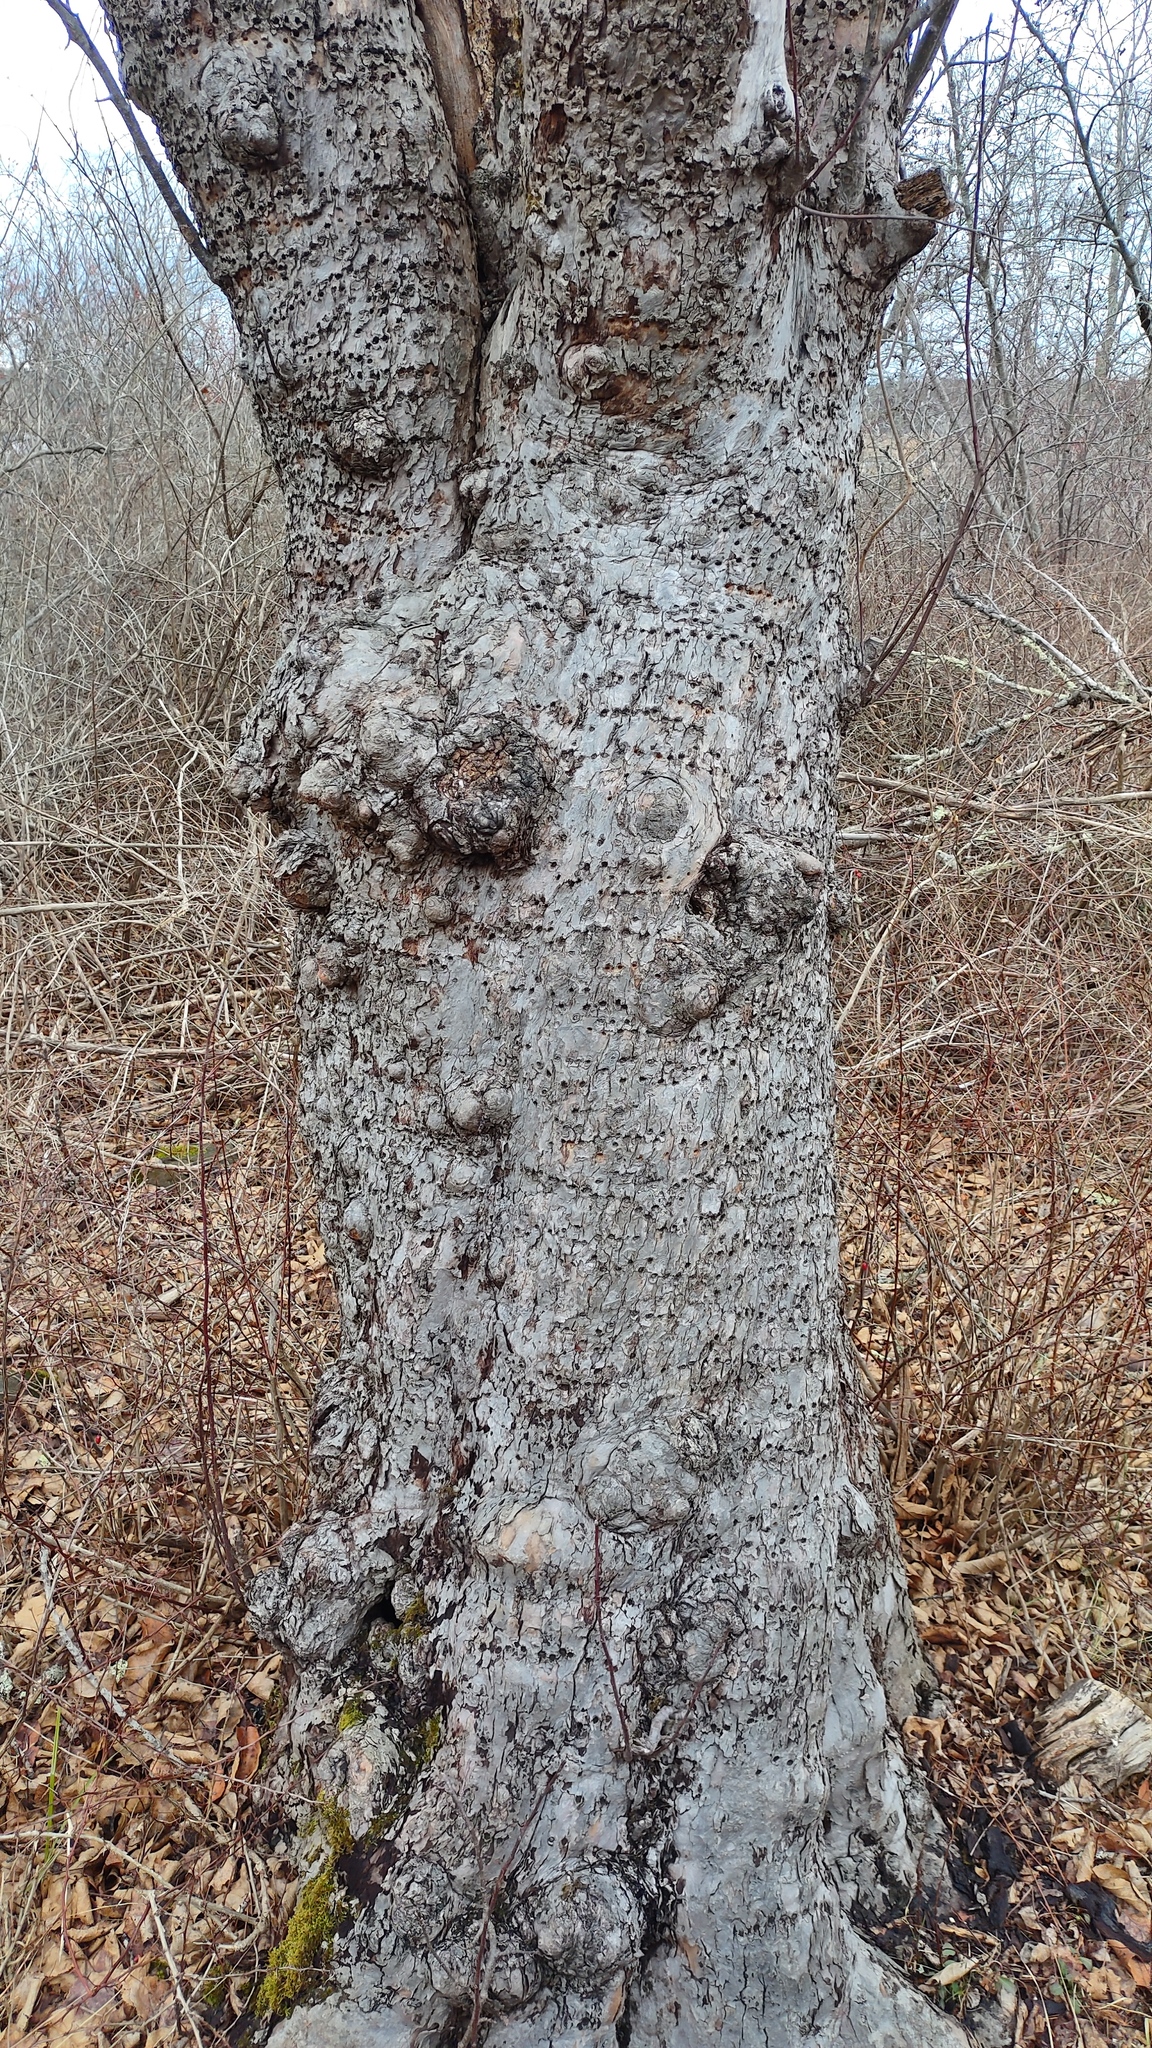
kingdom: Animalia
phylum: Chordata
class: Aves
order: Piciformes
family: Picidae
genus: Sphyrapicus
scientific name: Sphyrapicus varius
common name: Yellow-bellied sapsucker
